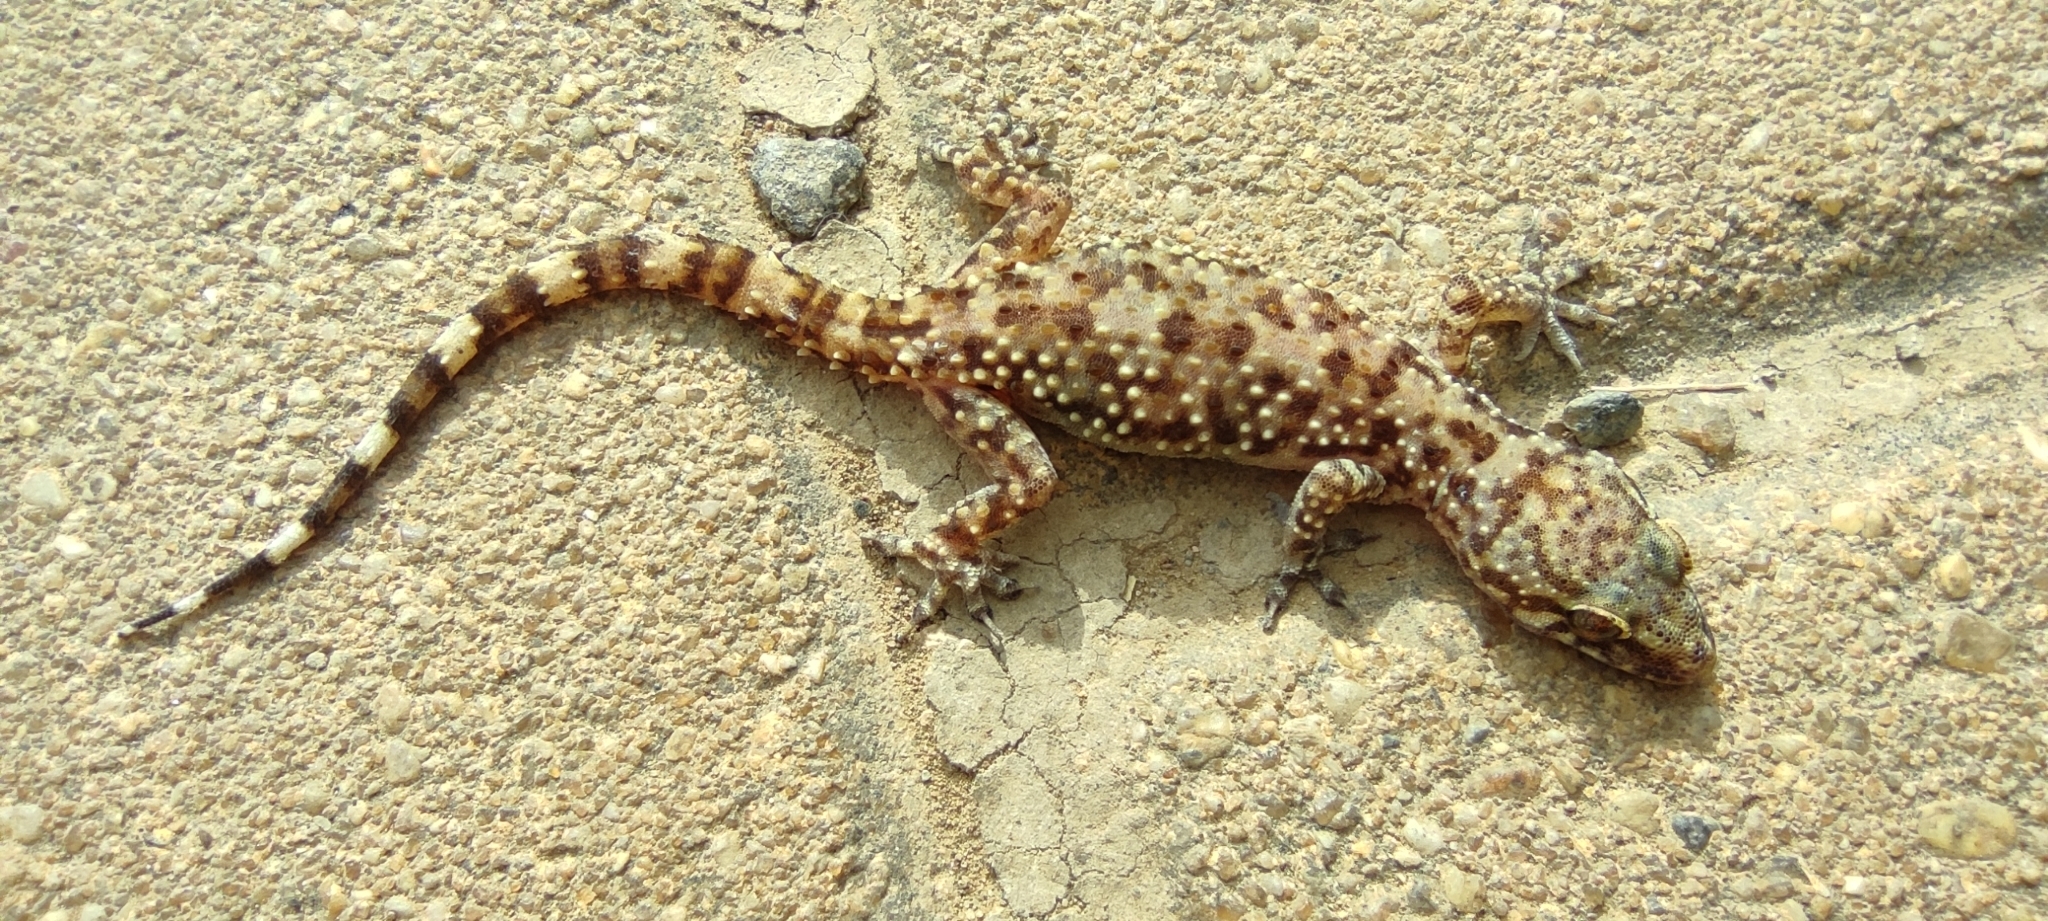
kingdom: Animalia
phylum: Chordata
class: Squamata
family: Gekkonidae
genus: Hemidactylus
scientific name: Hemidactylus turcicus
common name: Turkish gecko
